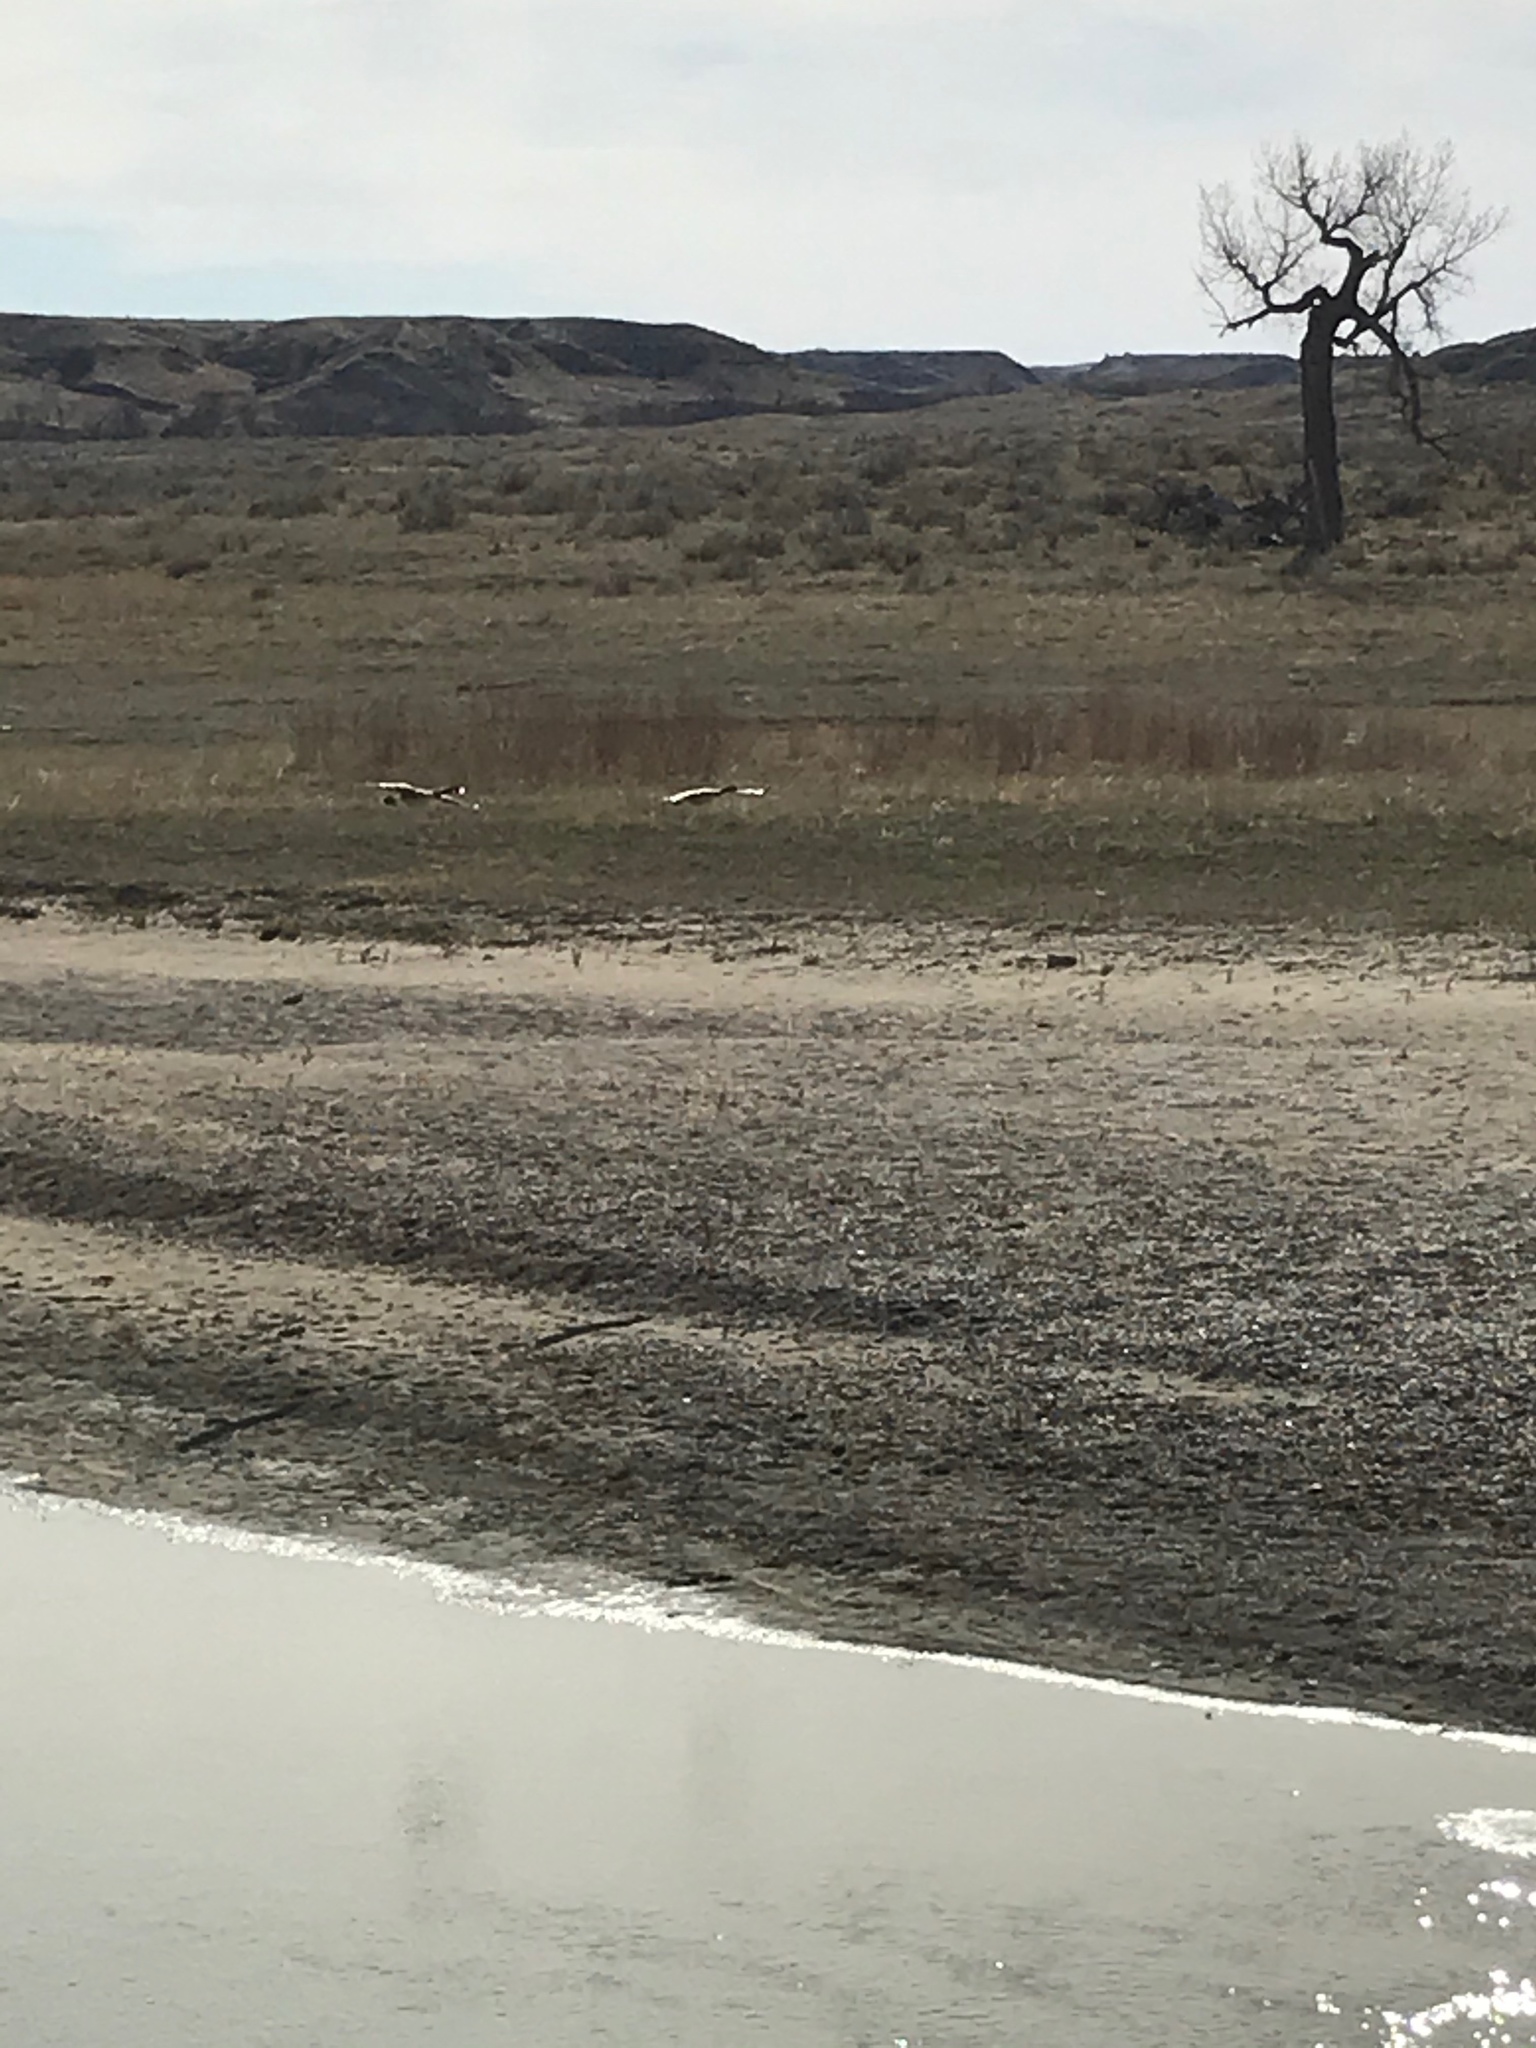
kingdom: Animalia
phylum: Chordata
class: Aves
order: Anseriformes
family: Anatidae
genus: Branta
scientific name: Branta canadensis
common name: Canada goose
